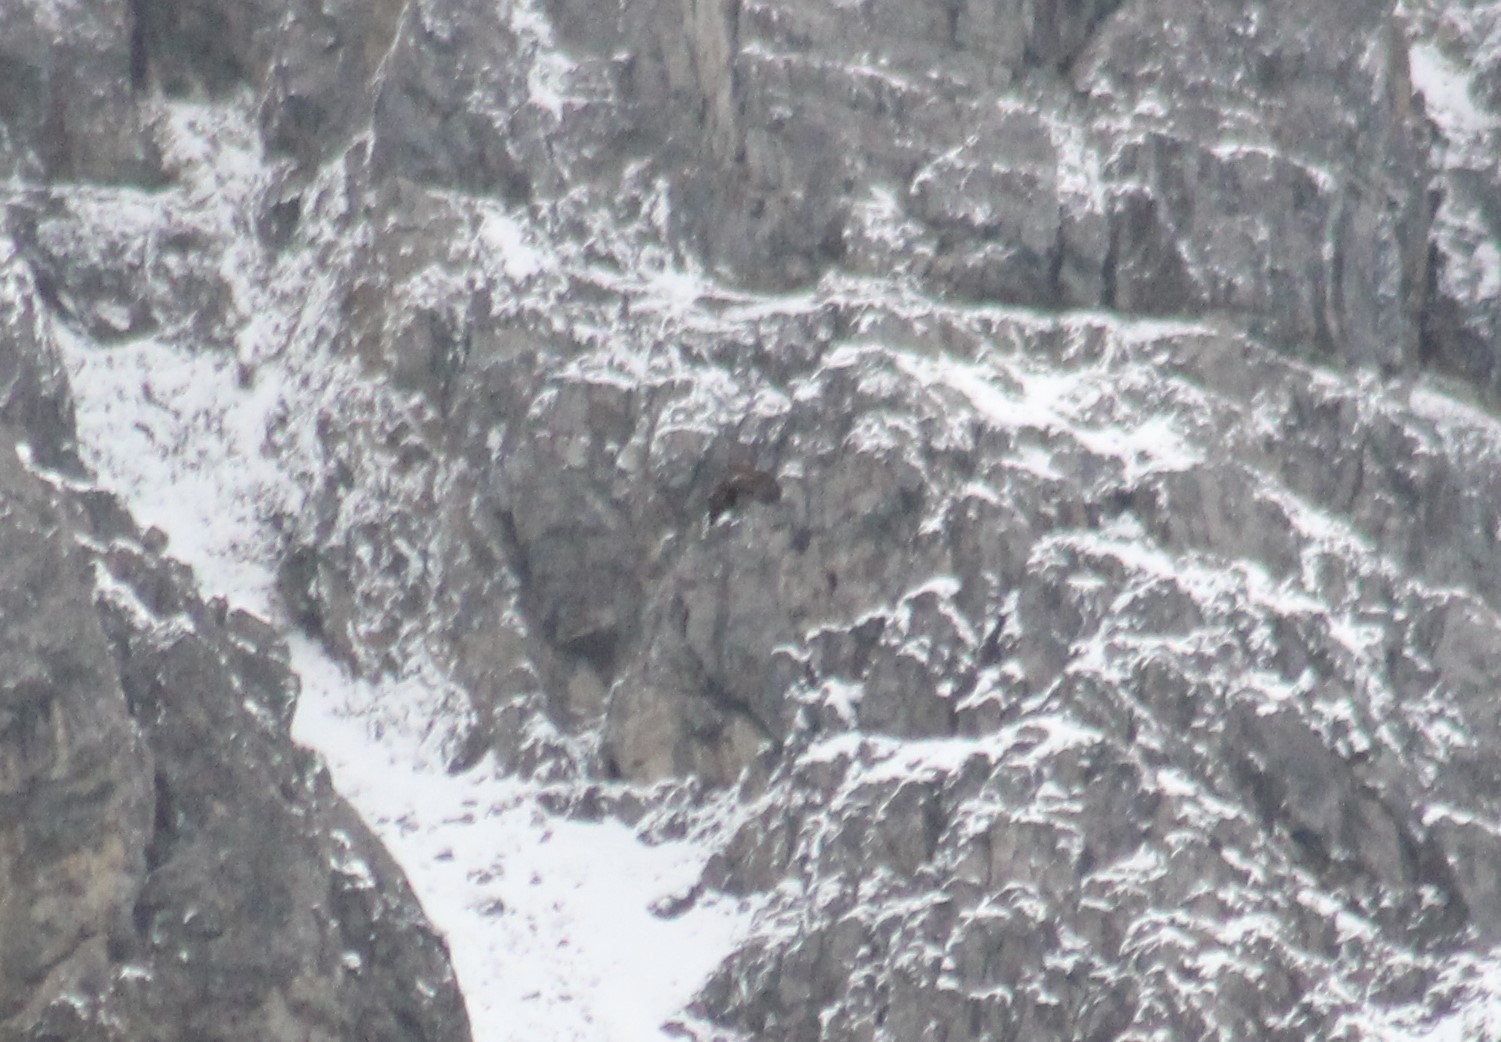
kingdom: Animalia
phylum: Chordata
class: Aves
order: Accipitriformes
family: Accipitridae
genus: Aquila
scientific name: Aquila chrysaetos
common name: Golden eagle
